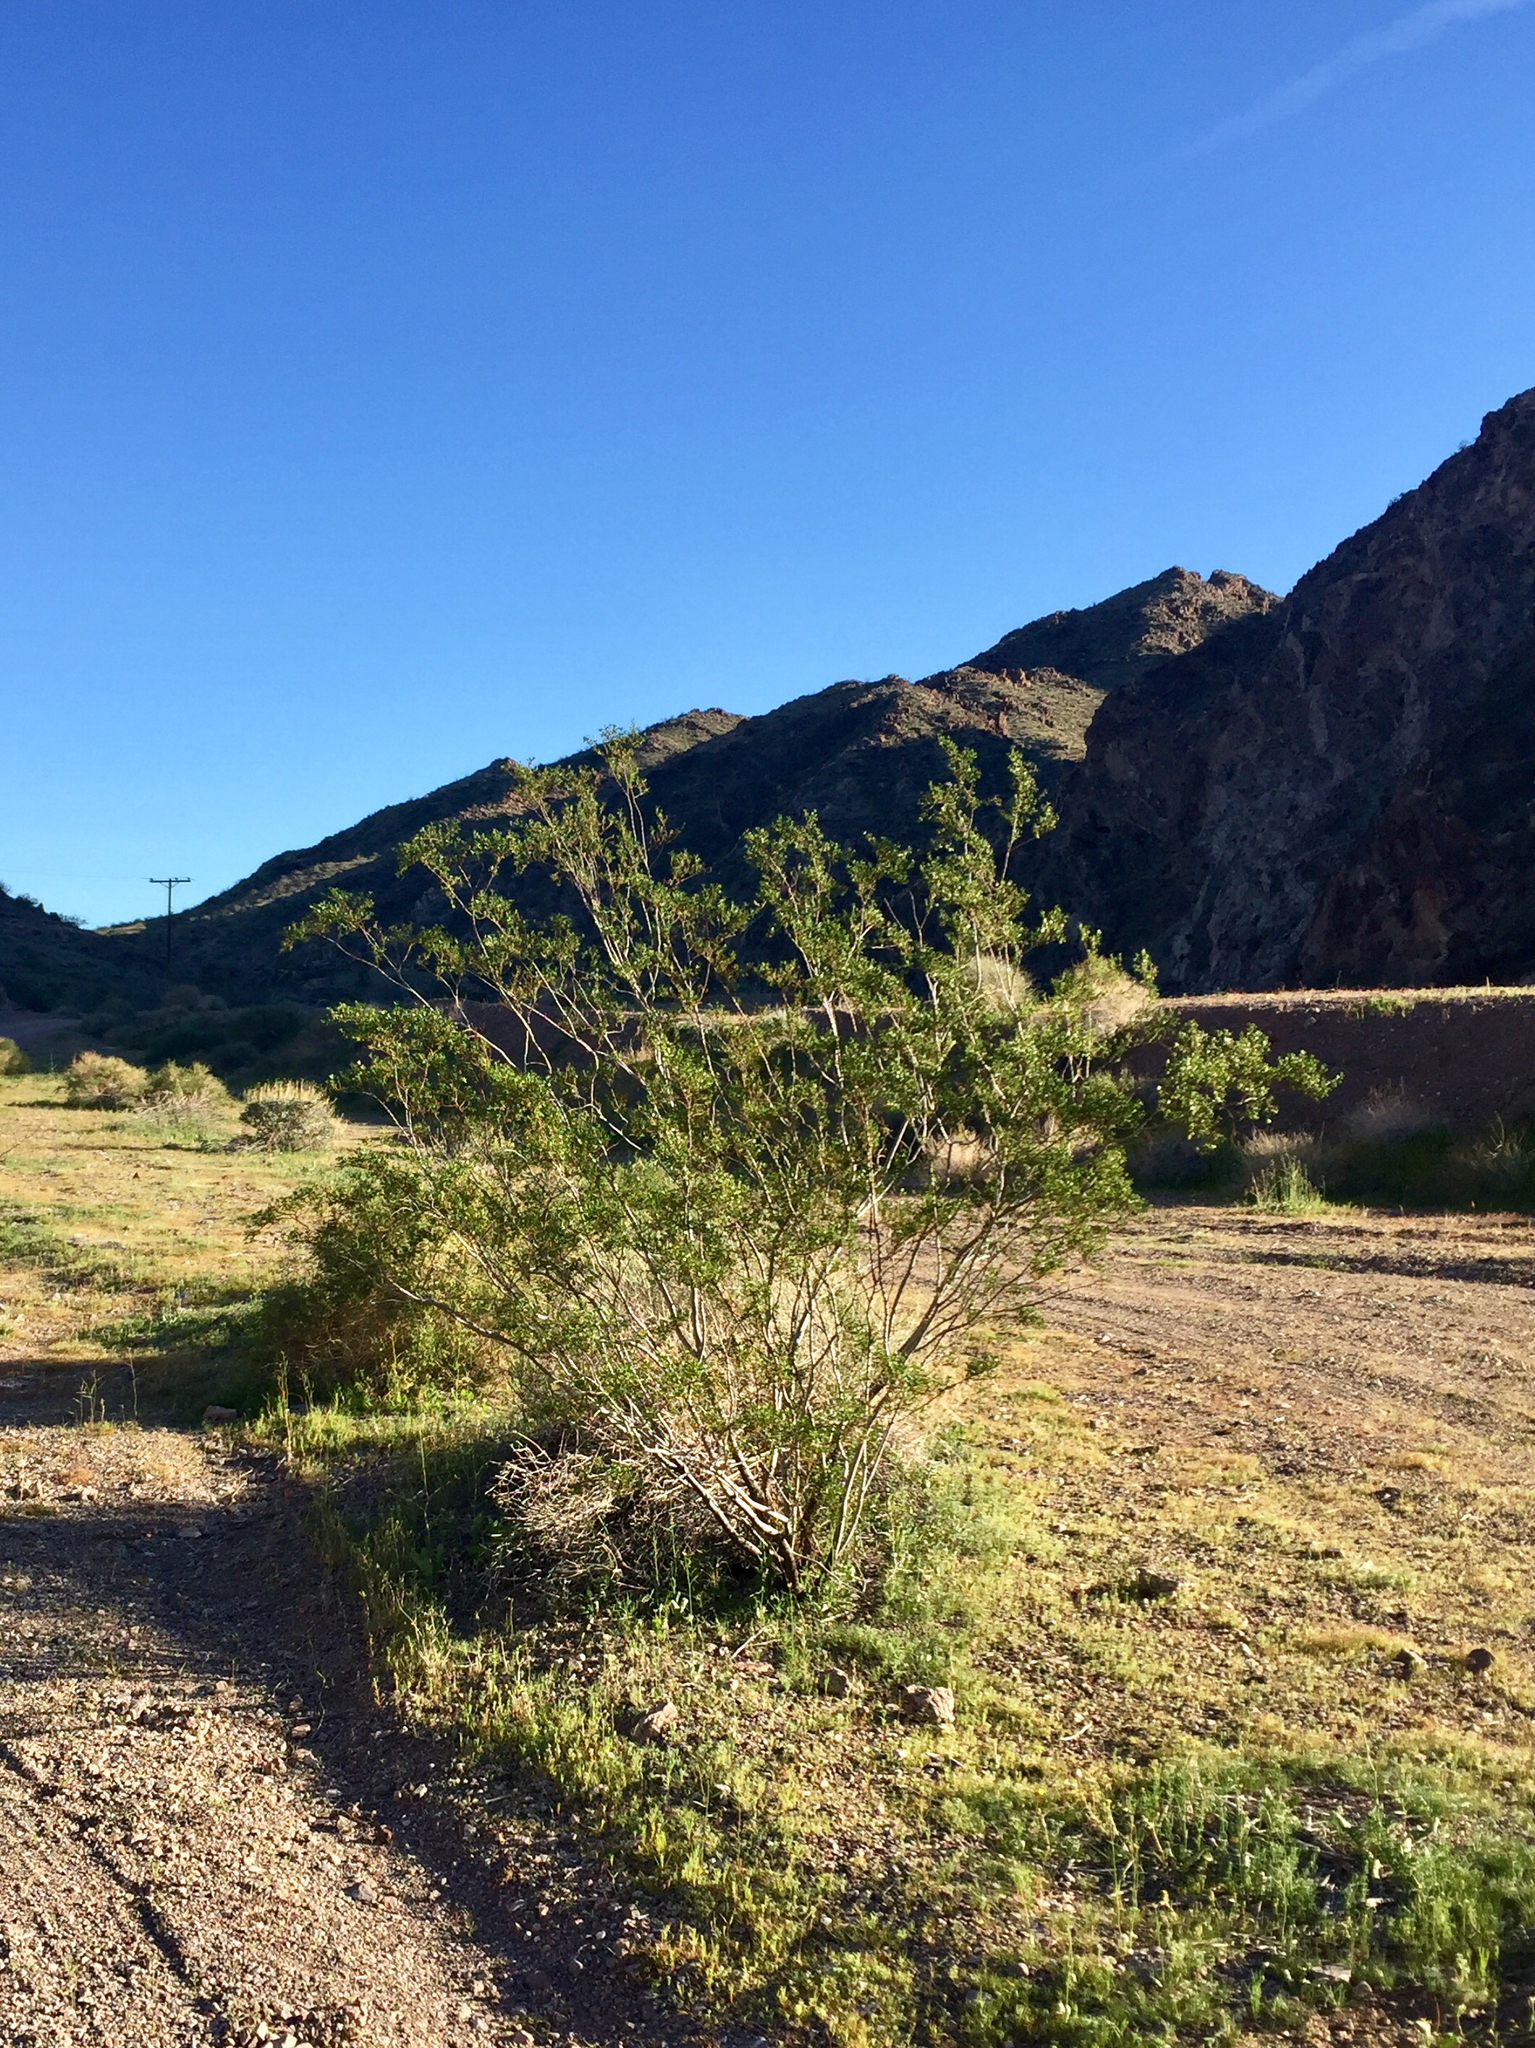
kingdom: Plantae
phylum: Tracheophyta
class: Magnoliopsida
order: Zygophyllales
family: Zygophyllaceae
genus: Larrea
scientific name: Larrea tridentata
